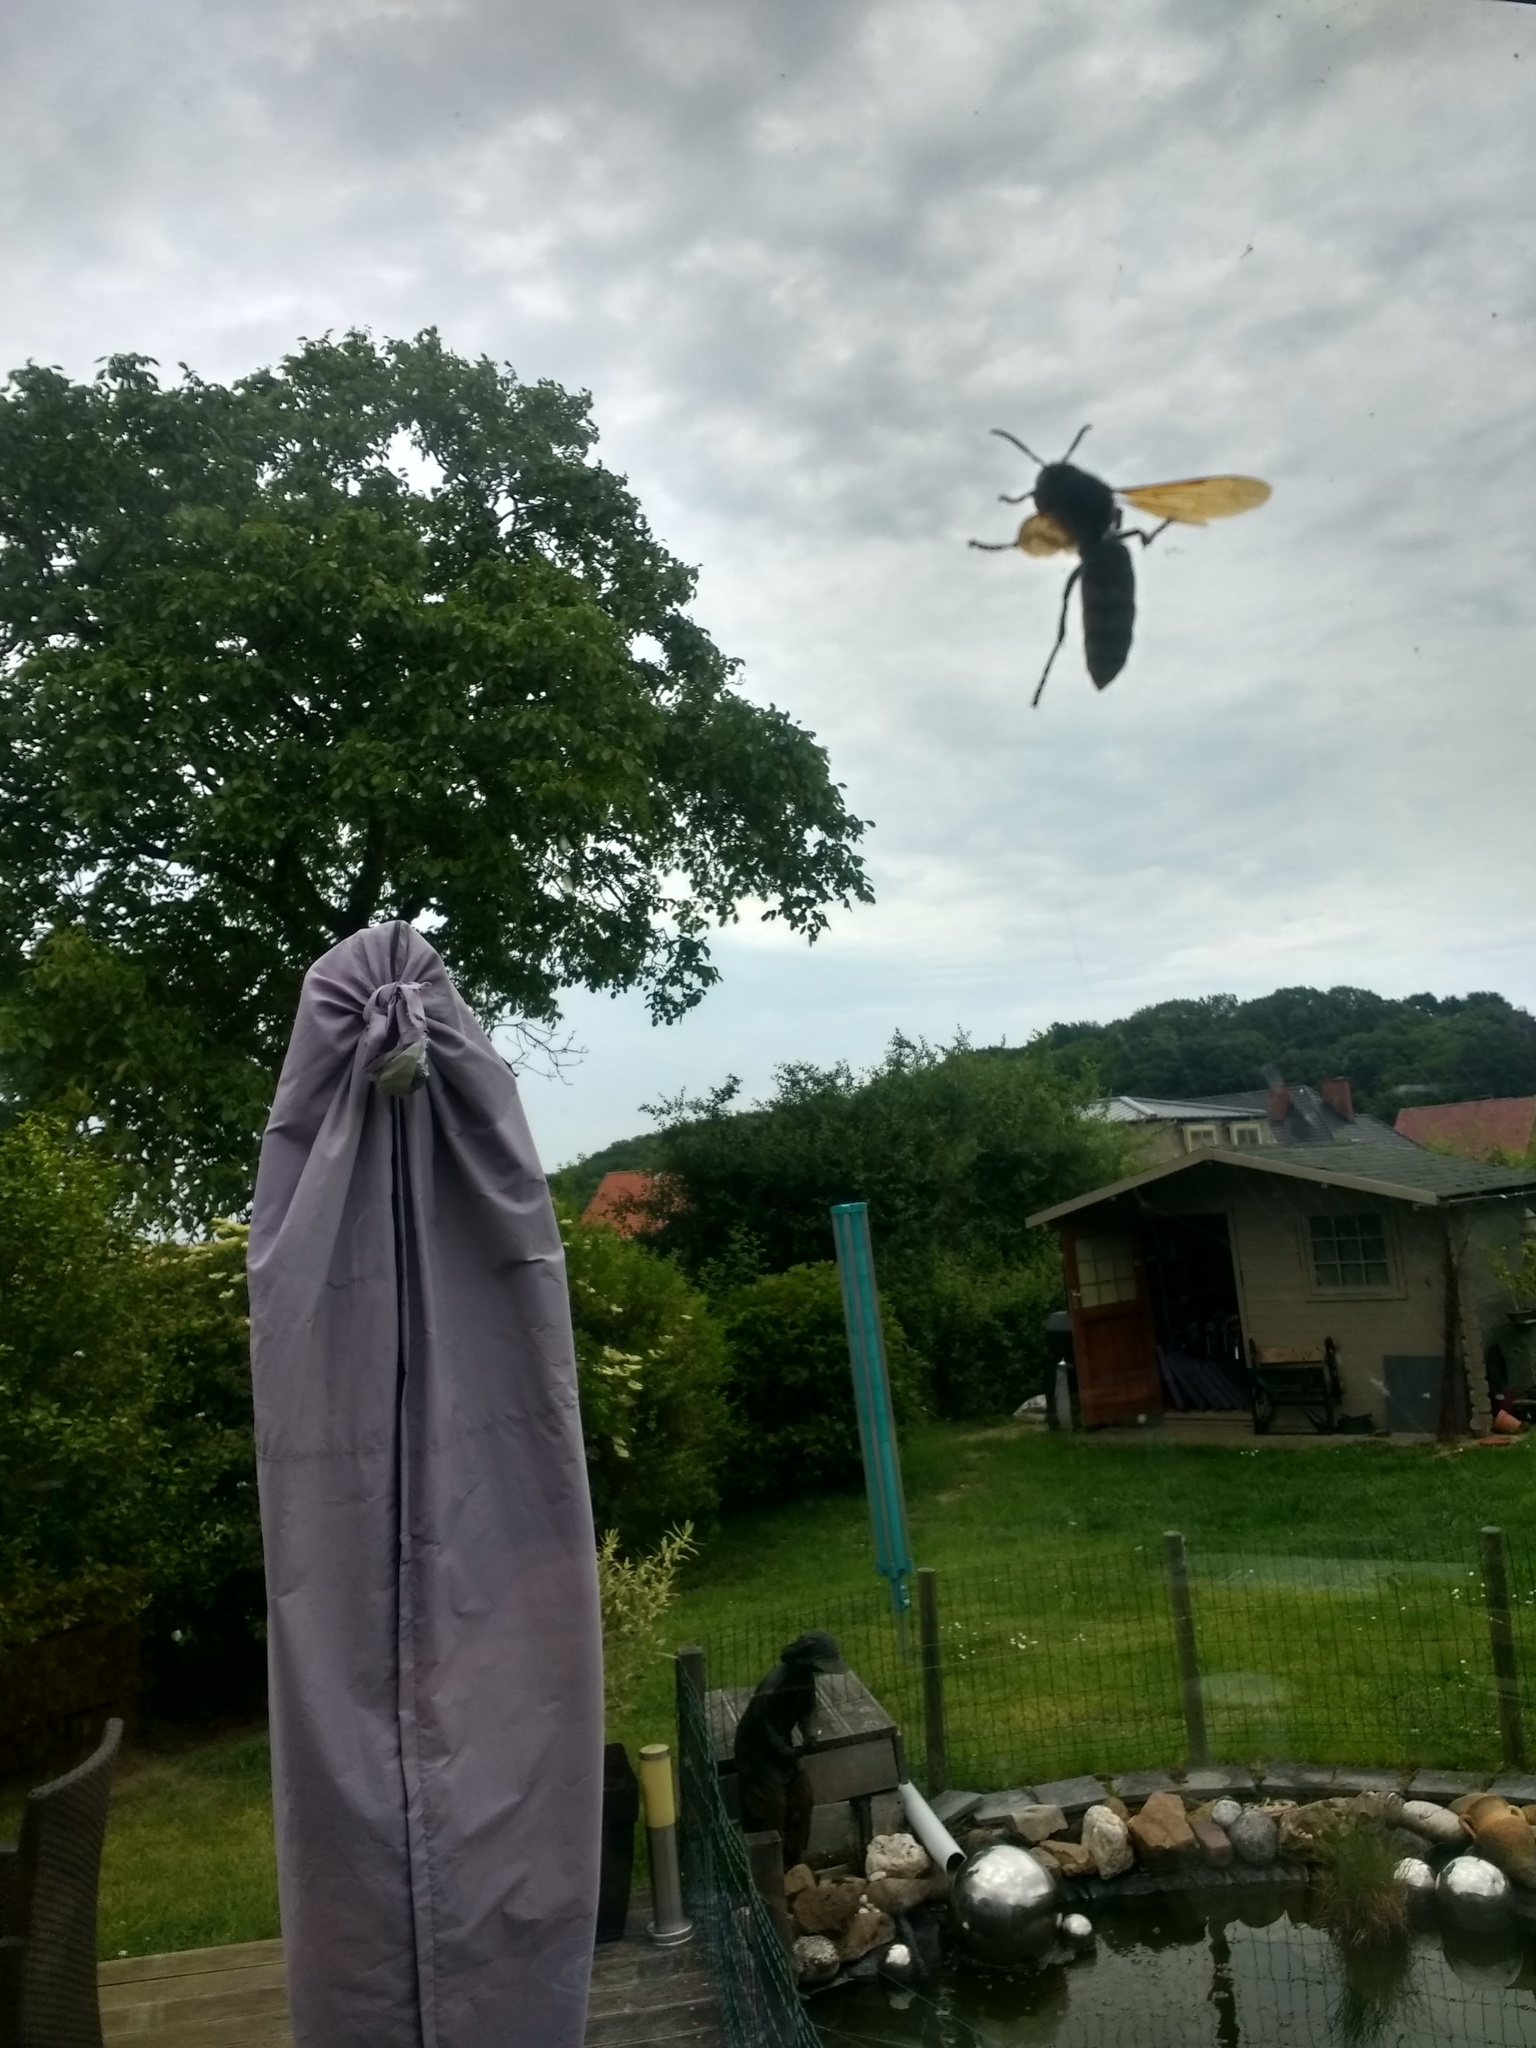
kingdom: Animalia
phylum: Arthropoda
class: Insecta
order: Hymenoptera
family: Vespidae
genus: Vespa
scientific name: Vespa crabro
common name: Hornet
